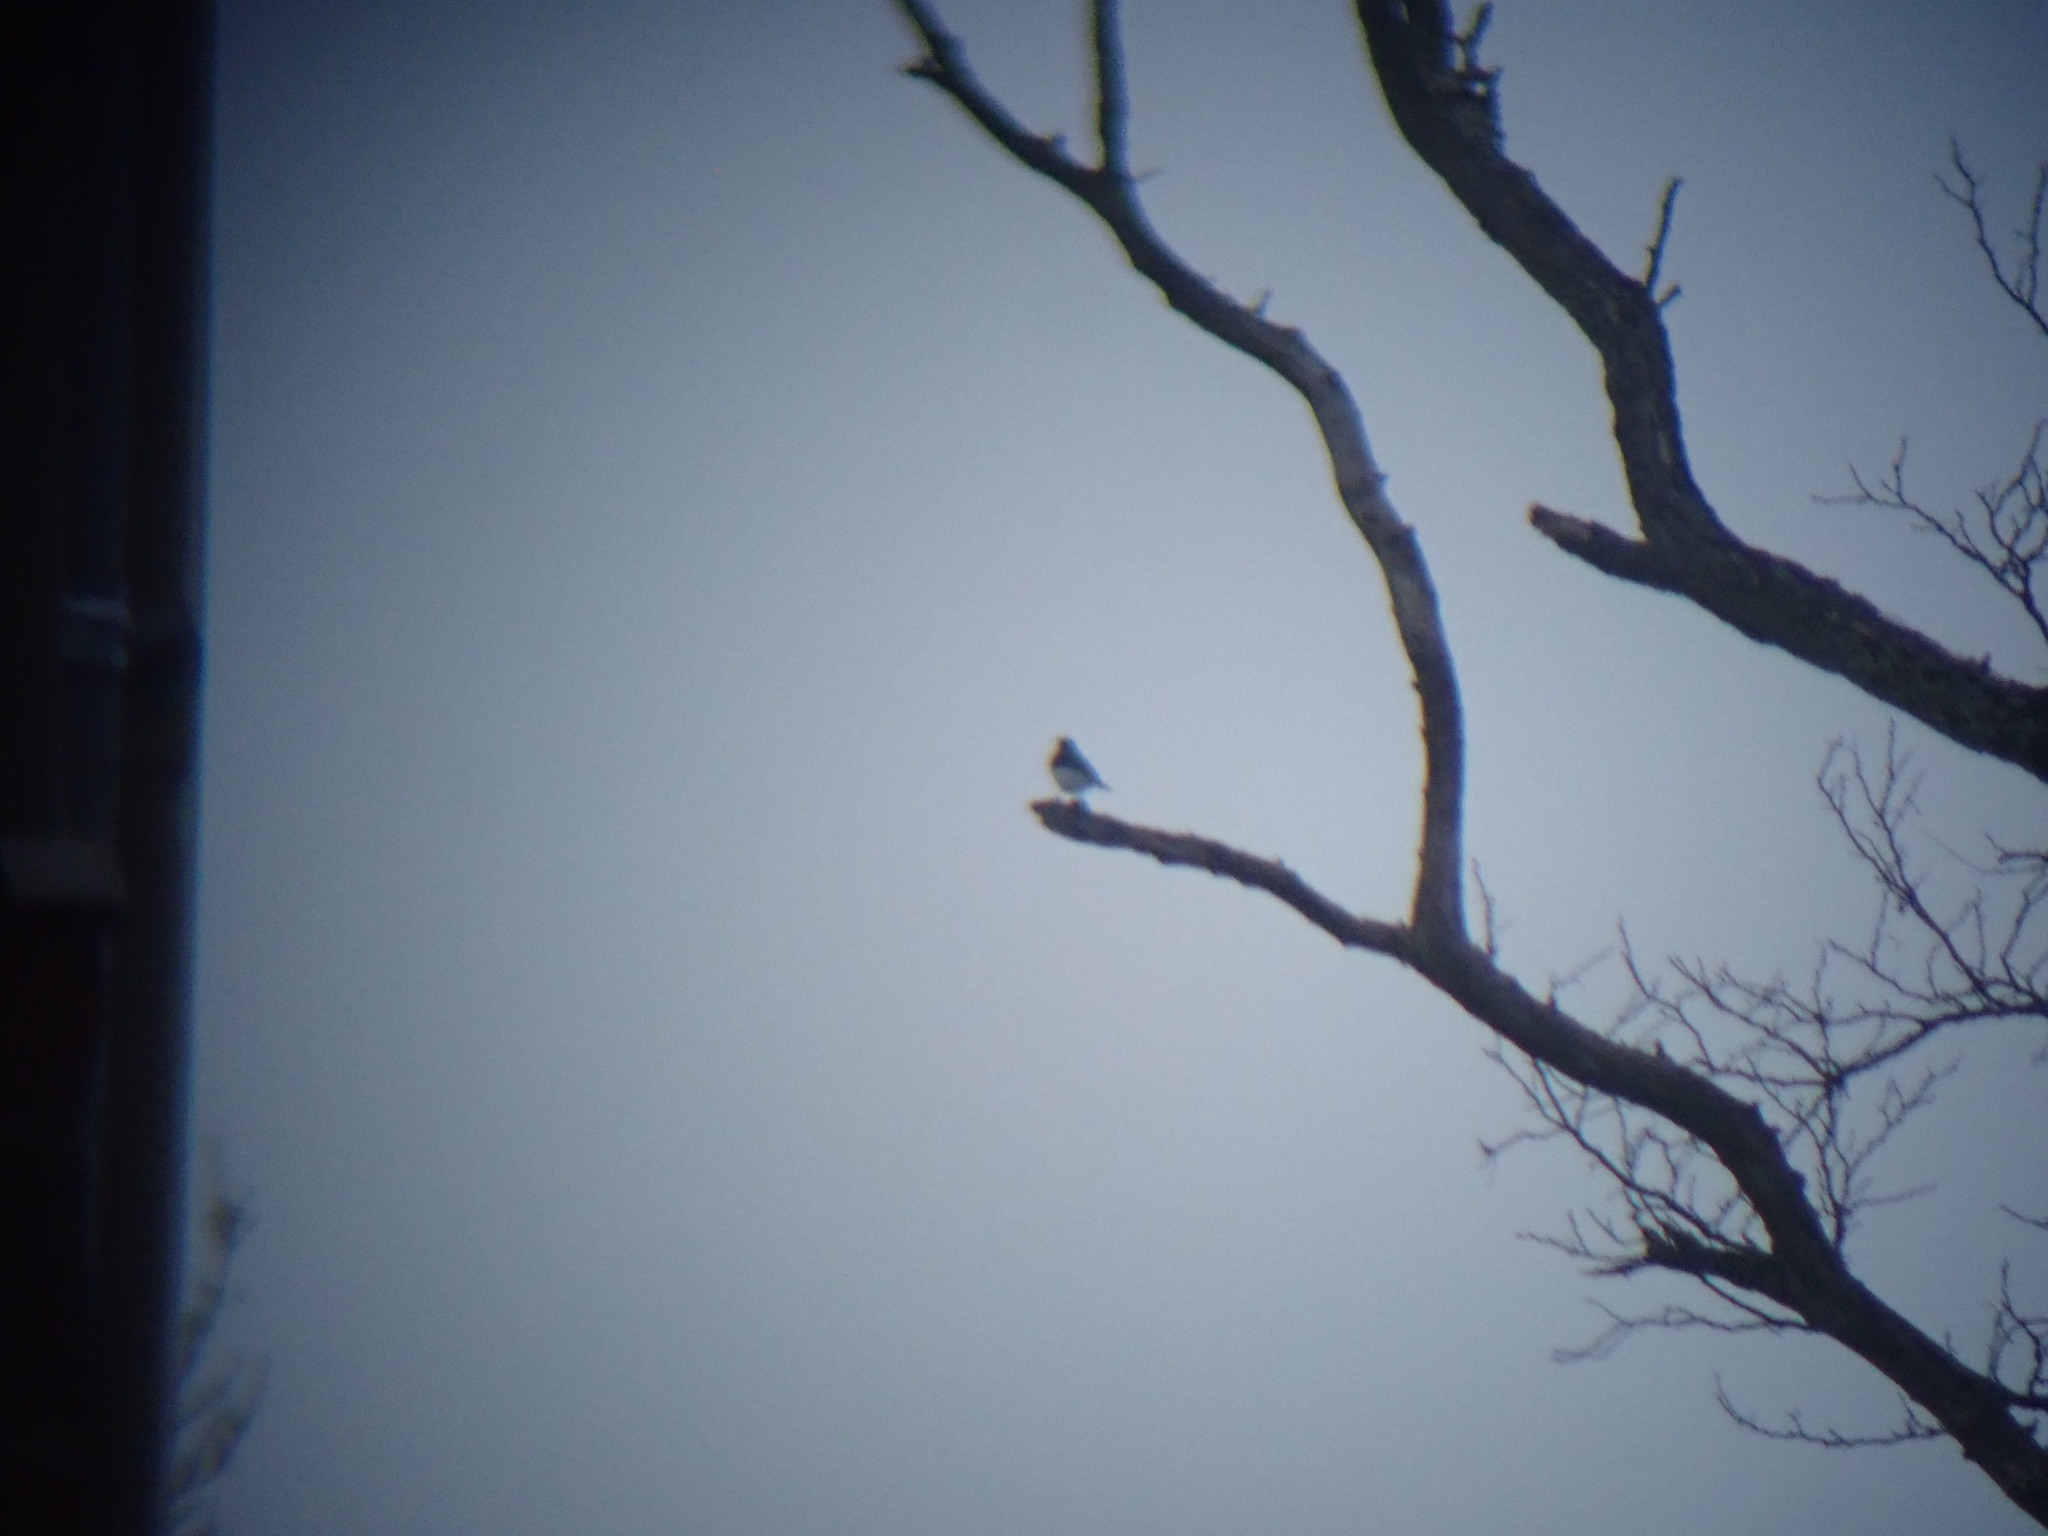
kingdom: Animalia
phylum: Chordata
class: Aves
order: Passeriformes
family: Passerellidae
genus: Junco
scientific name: Junco hyemalis
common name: Dark-eyed junco
